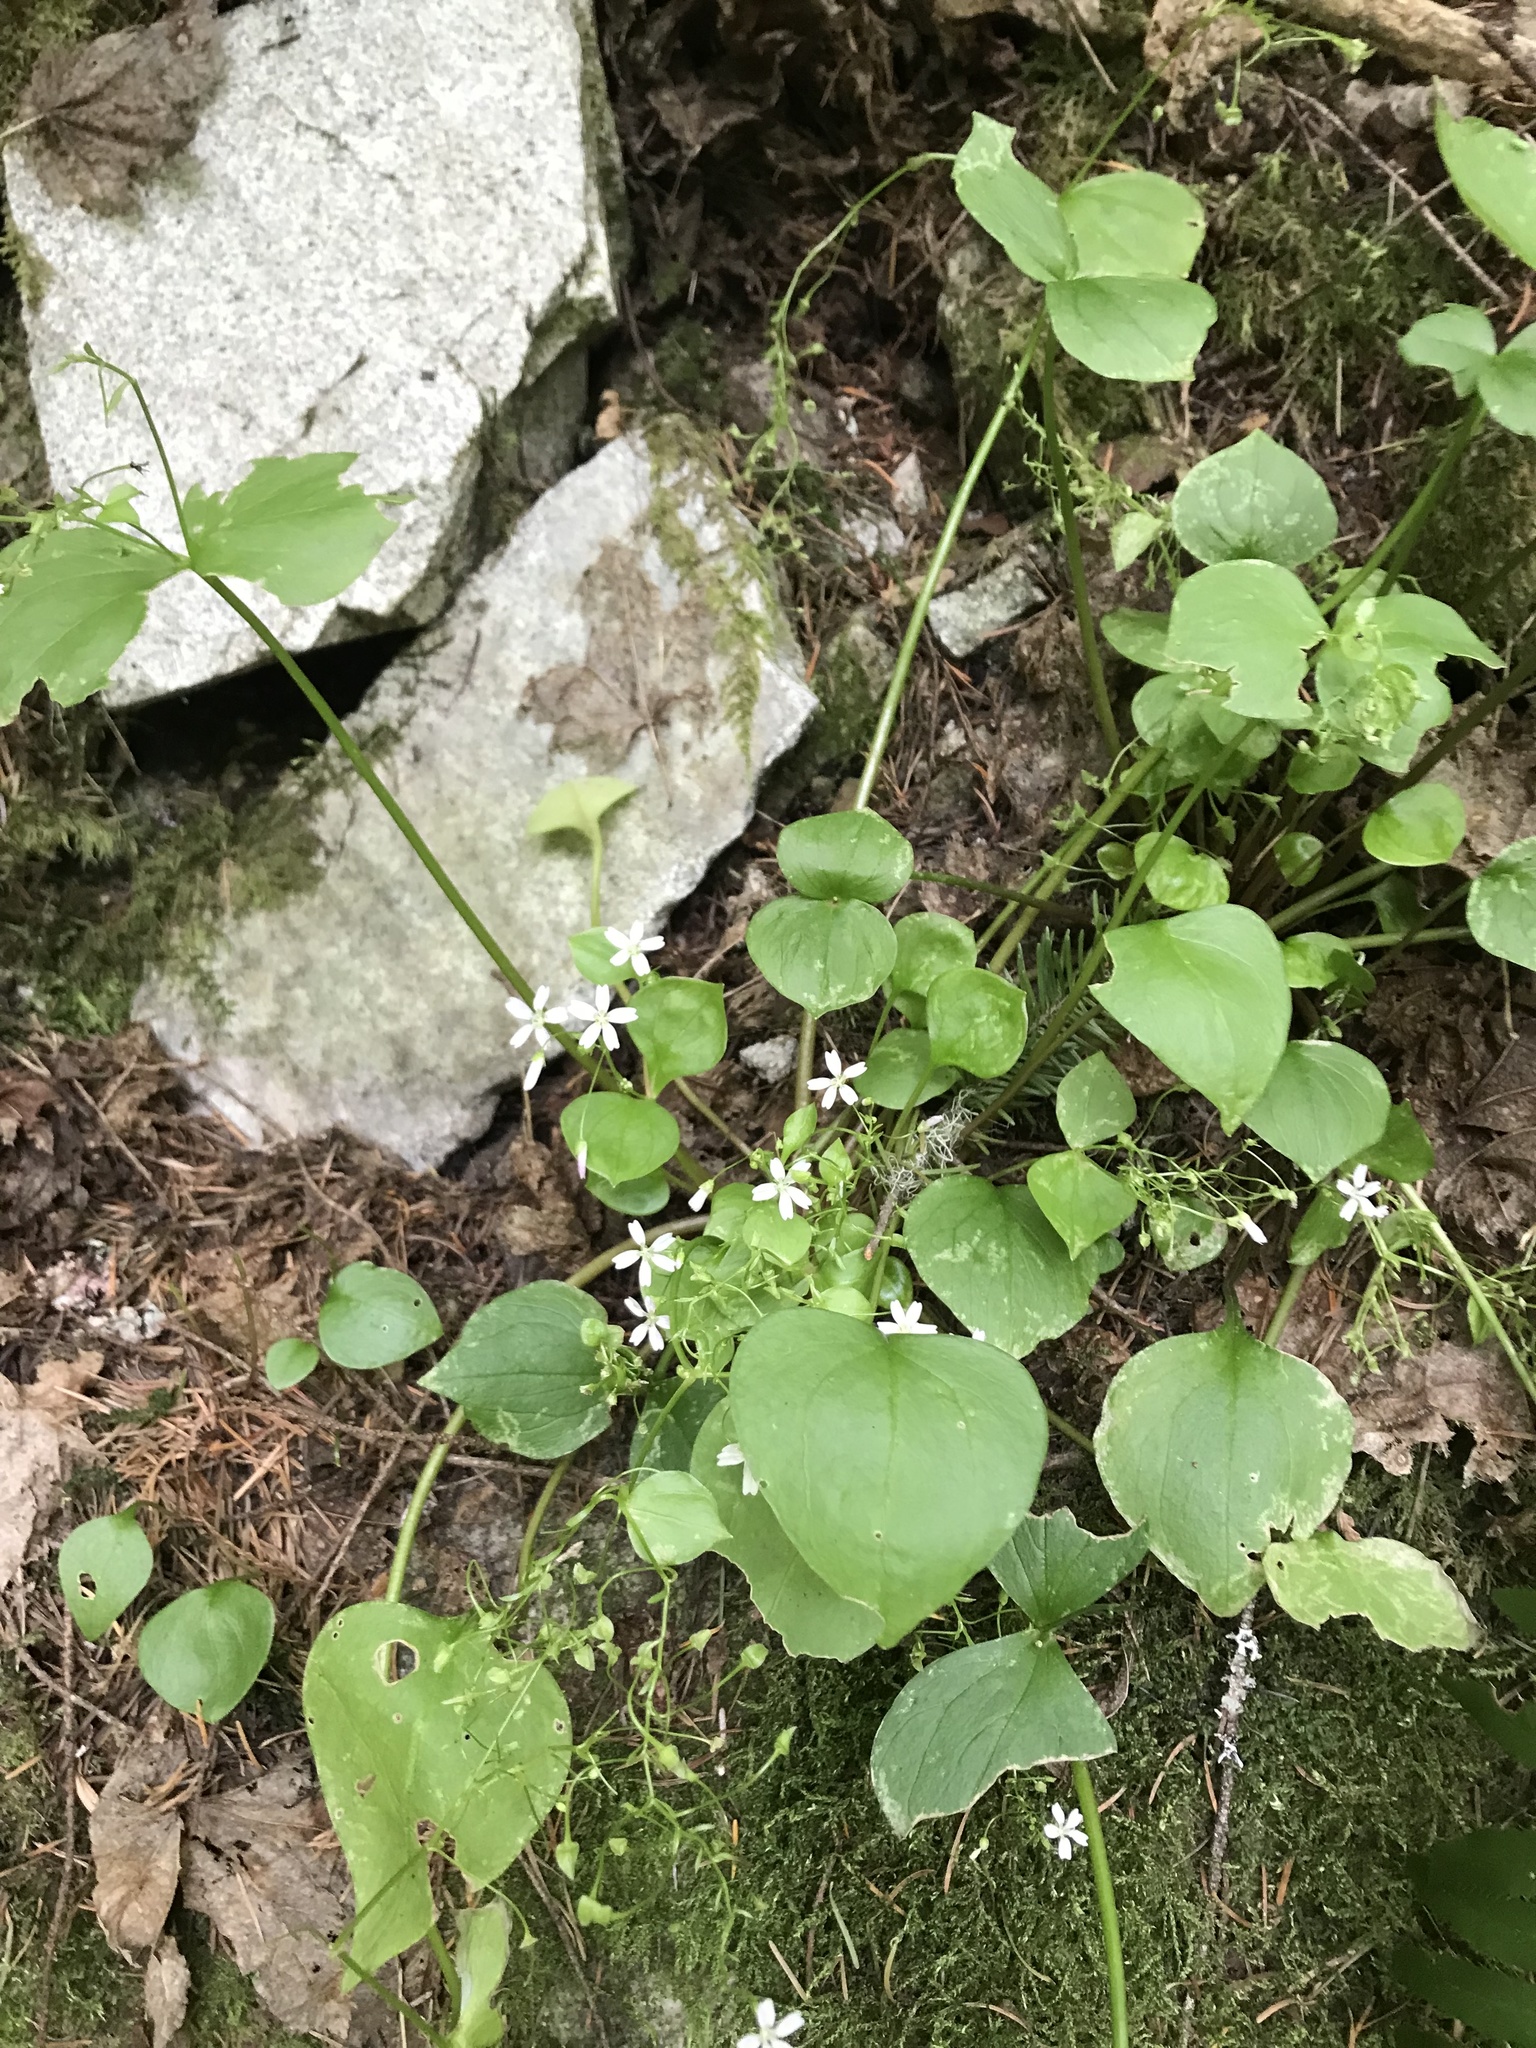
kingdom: Plantae
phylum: Tracheophyta
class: Magnoliopsida
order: Caryophyllales
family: Montiaceae
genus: Claytonia
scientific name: Claytonia sibirica
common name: Pink purslane
